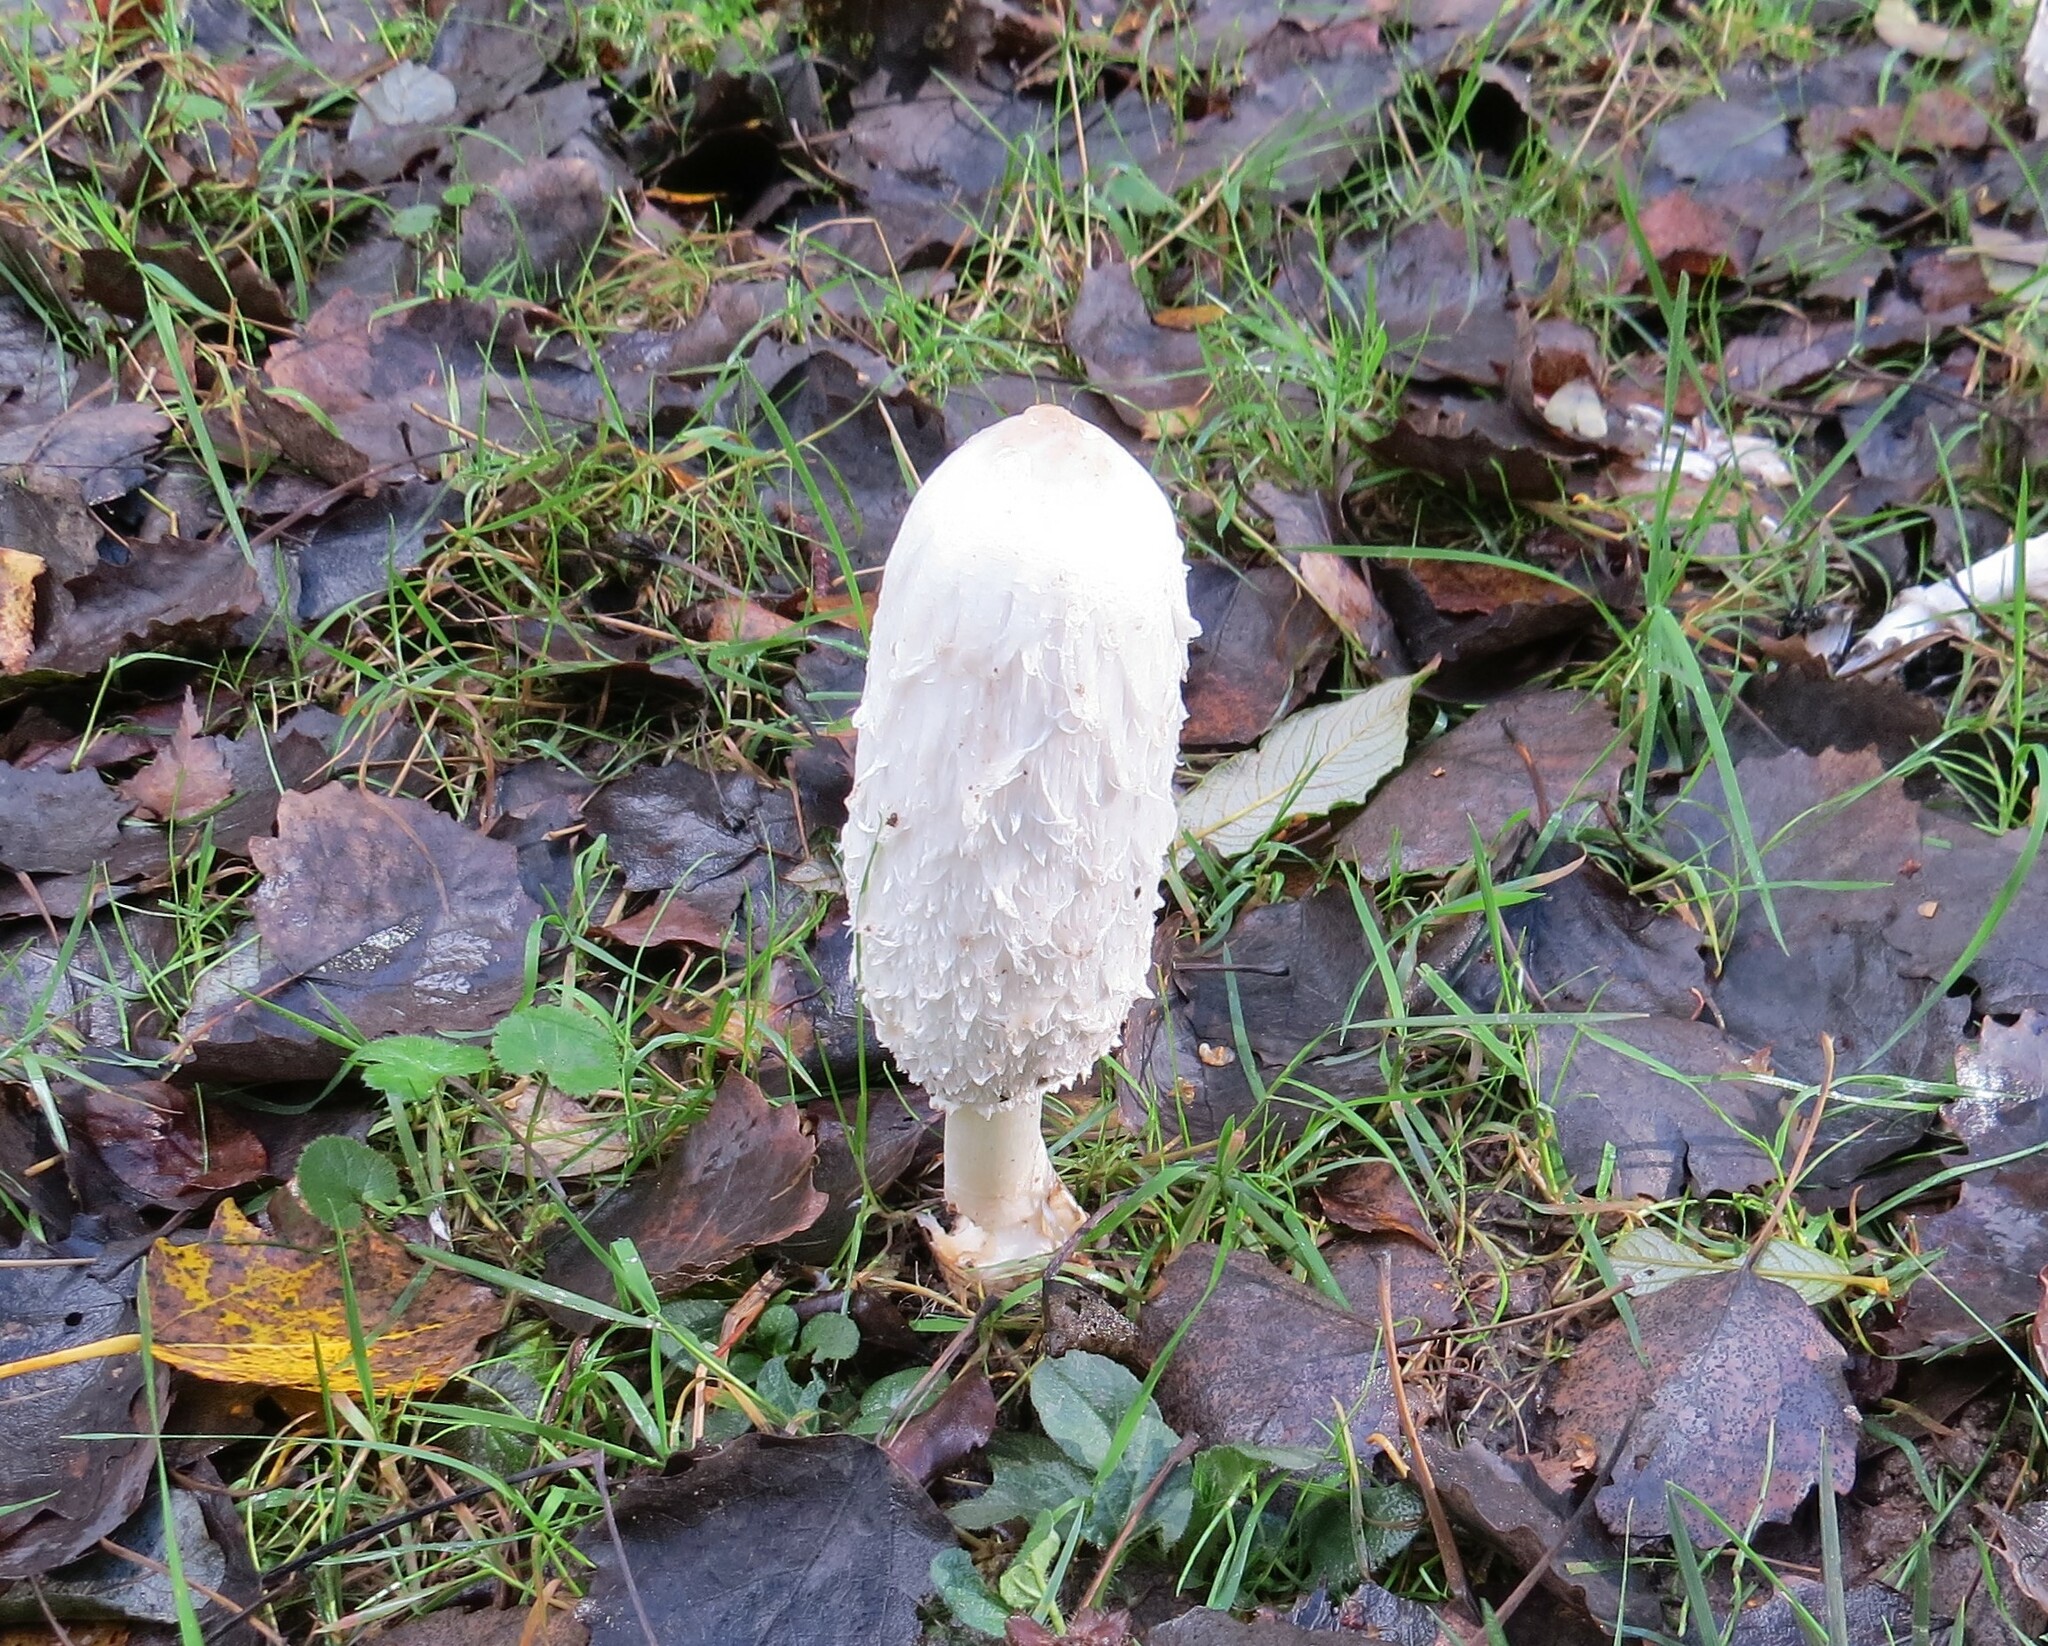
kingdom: Fungi
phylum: Basidiomycota
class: Agaricomycetes
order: Agaricales
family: Agaricaceae
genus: Coprinus
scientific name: Coprinus comatus
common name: Lawyer's wig
